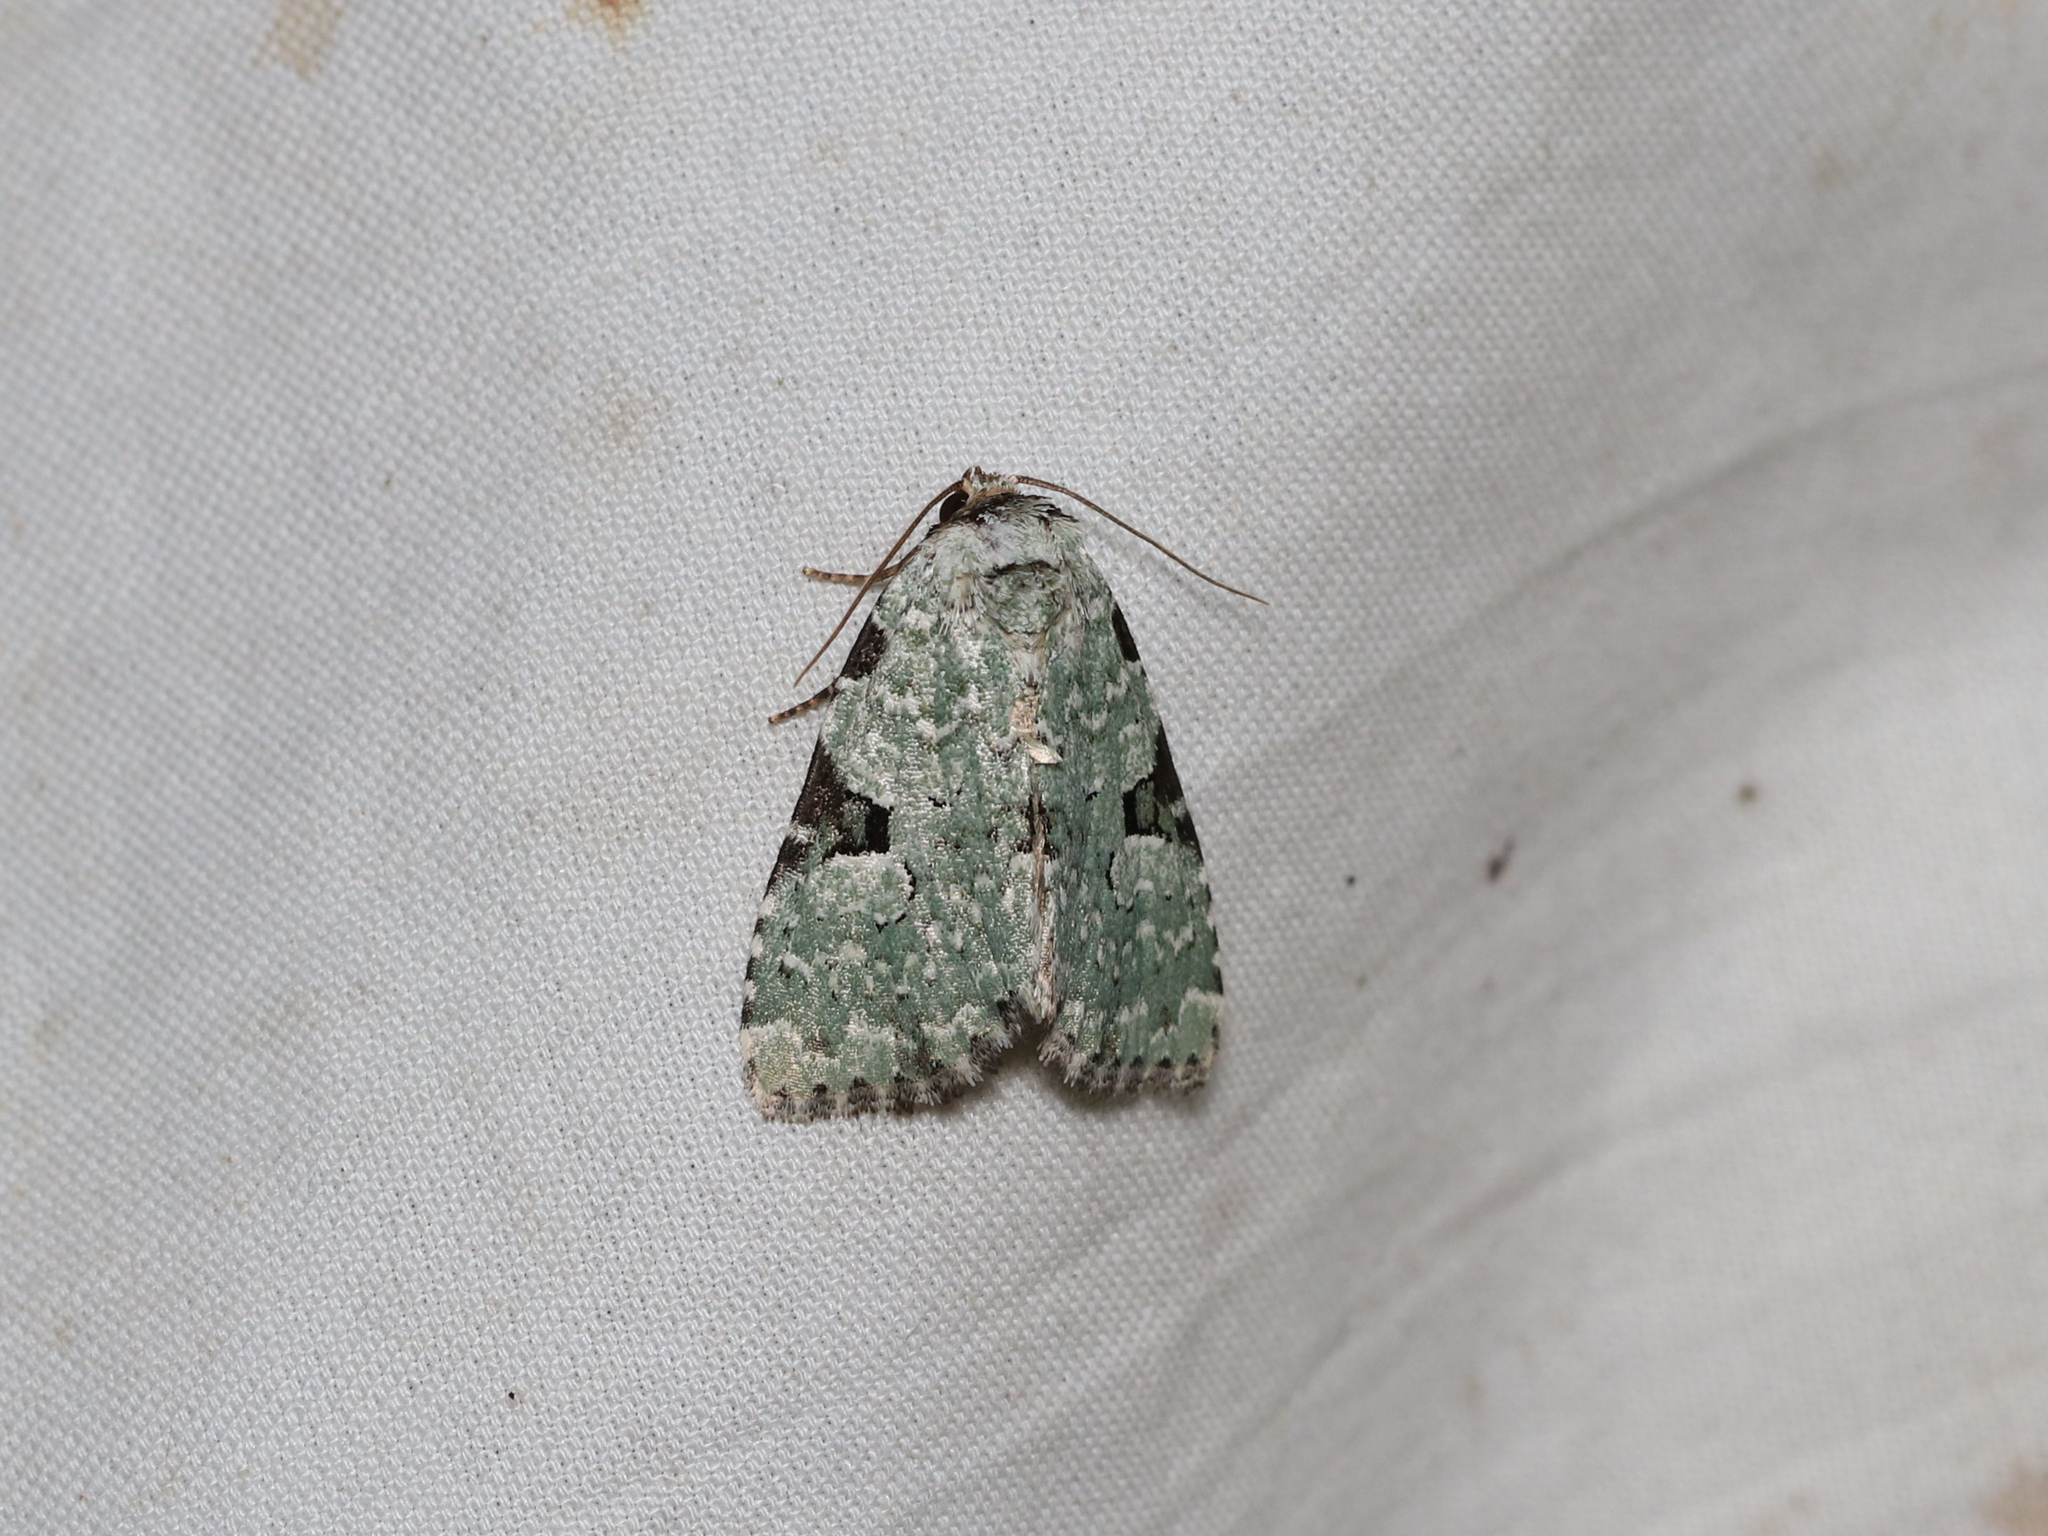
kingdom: Animalia
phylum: Arthropoda
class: Insecta
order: Lepidoptera
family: Noctuidae
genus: Leuconycta
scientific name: Leuconycta diphteroides
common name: Green leuconycta moth
